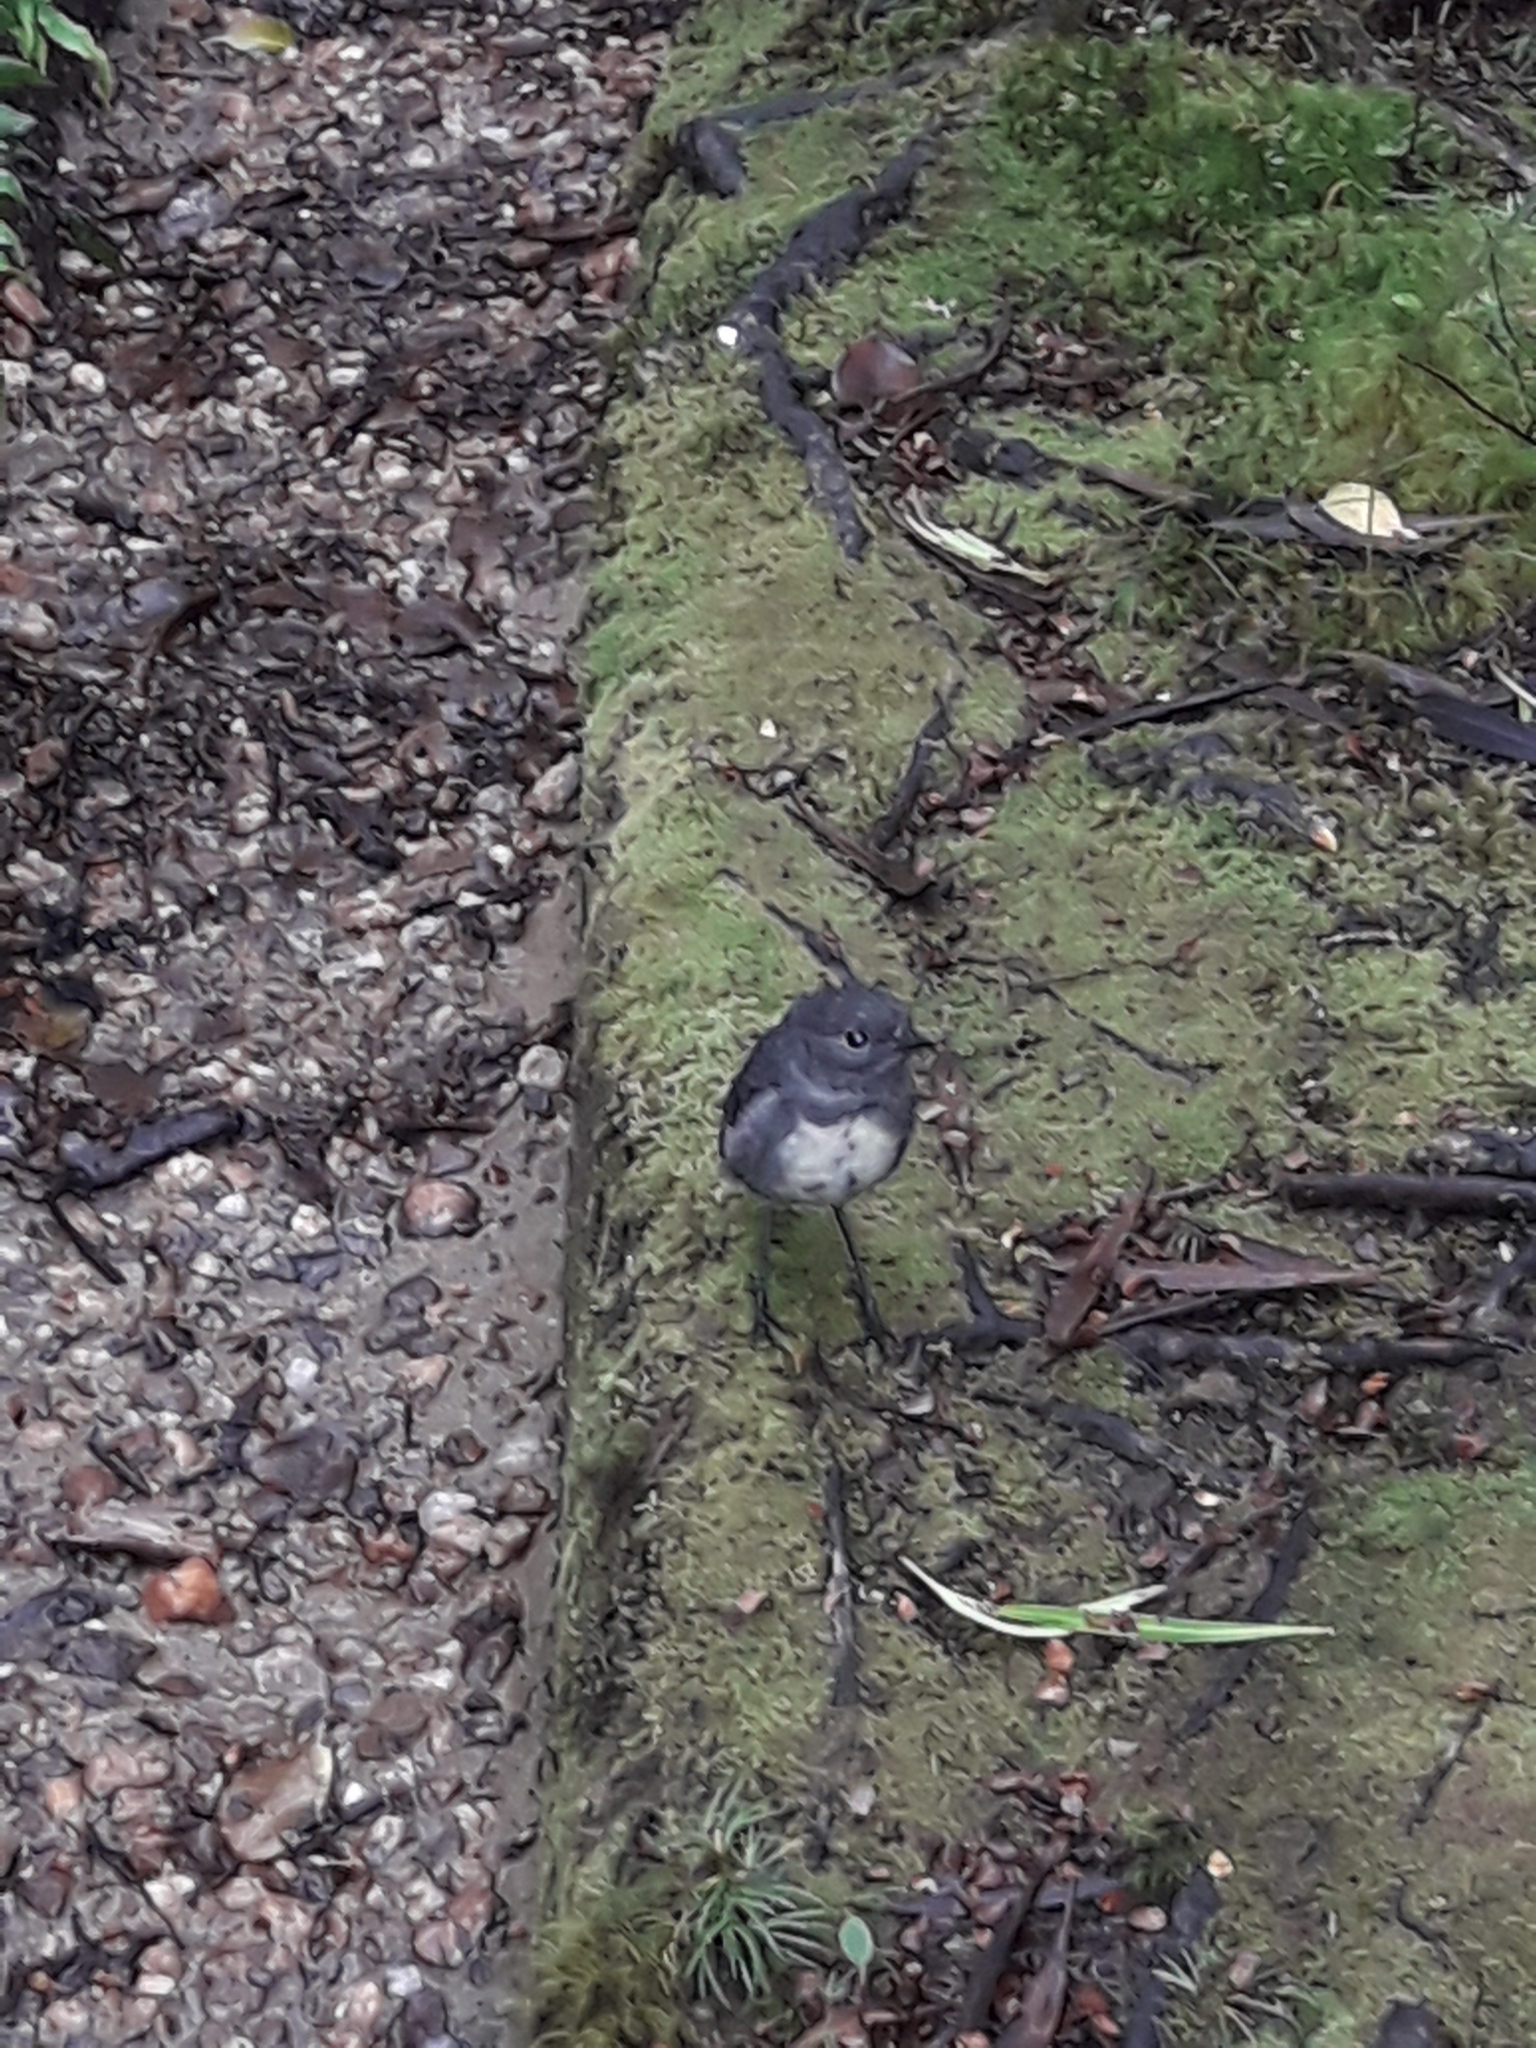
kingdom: Animalia
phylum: Chordata
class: Aves
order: Passeriformes
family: Petroicidae
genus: Petroica
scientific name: Petroica australis
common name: New zealand robin
